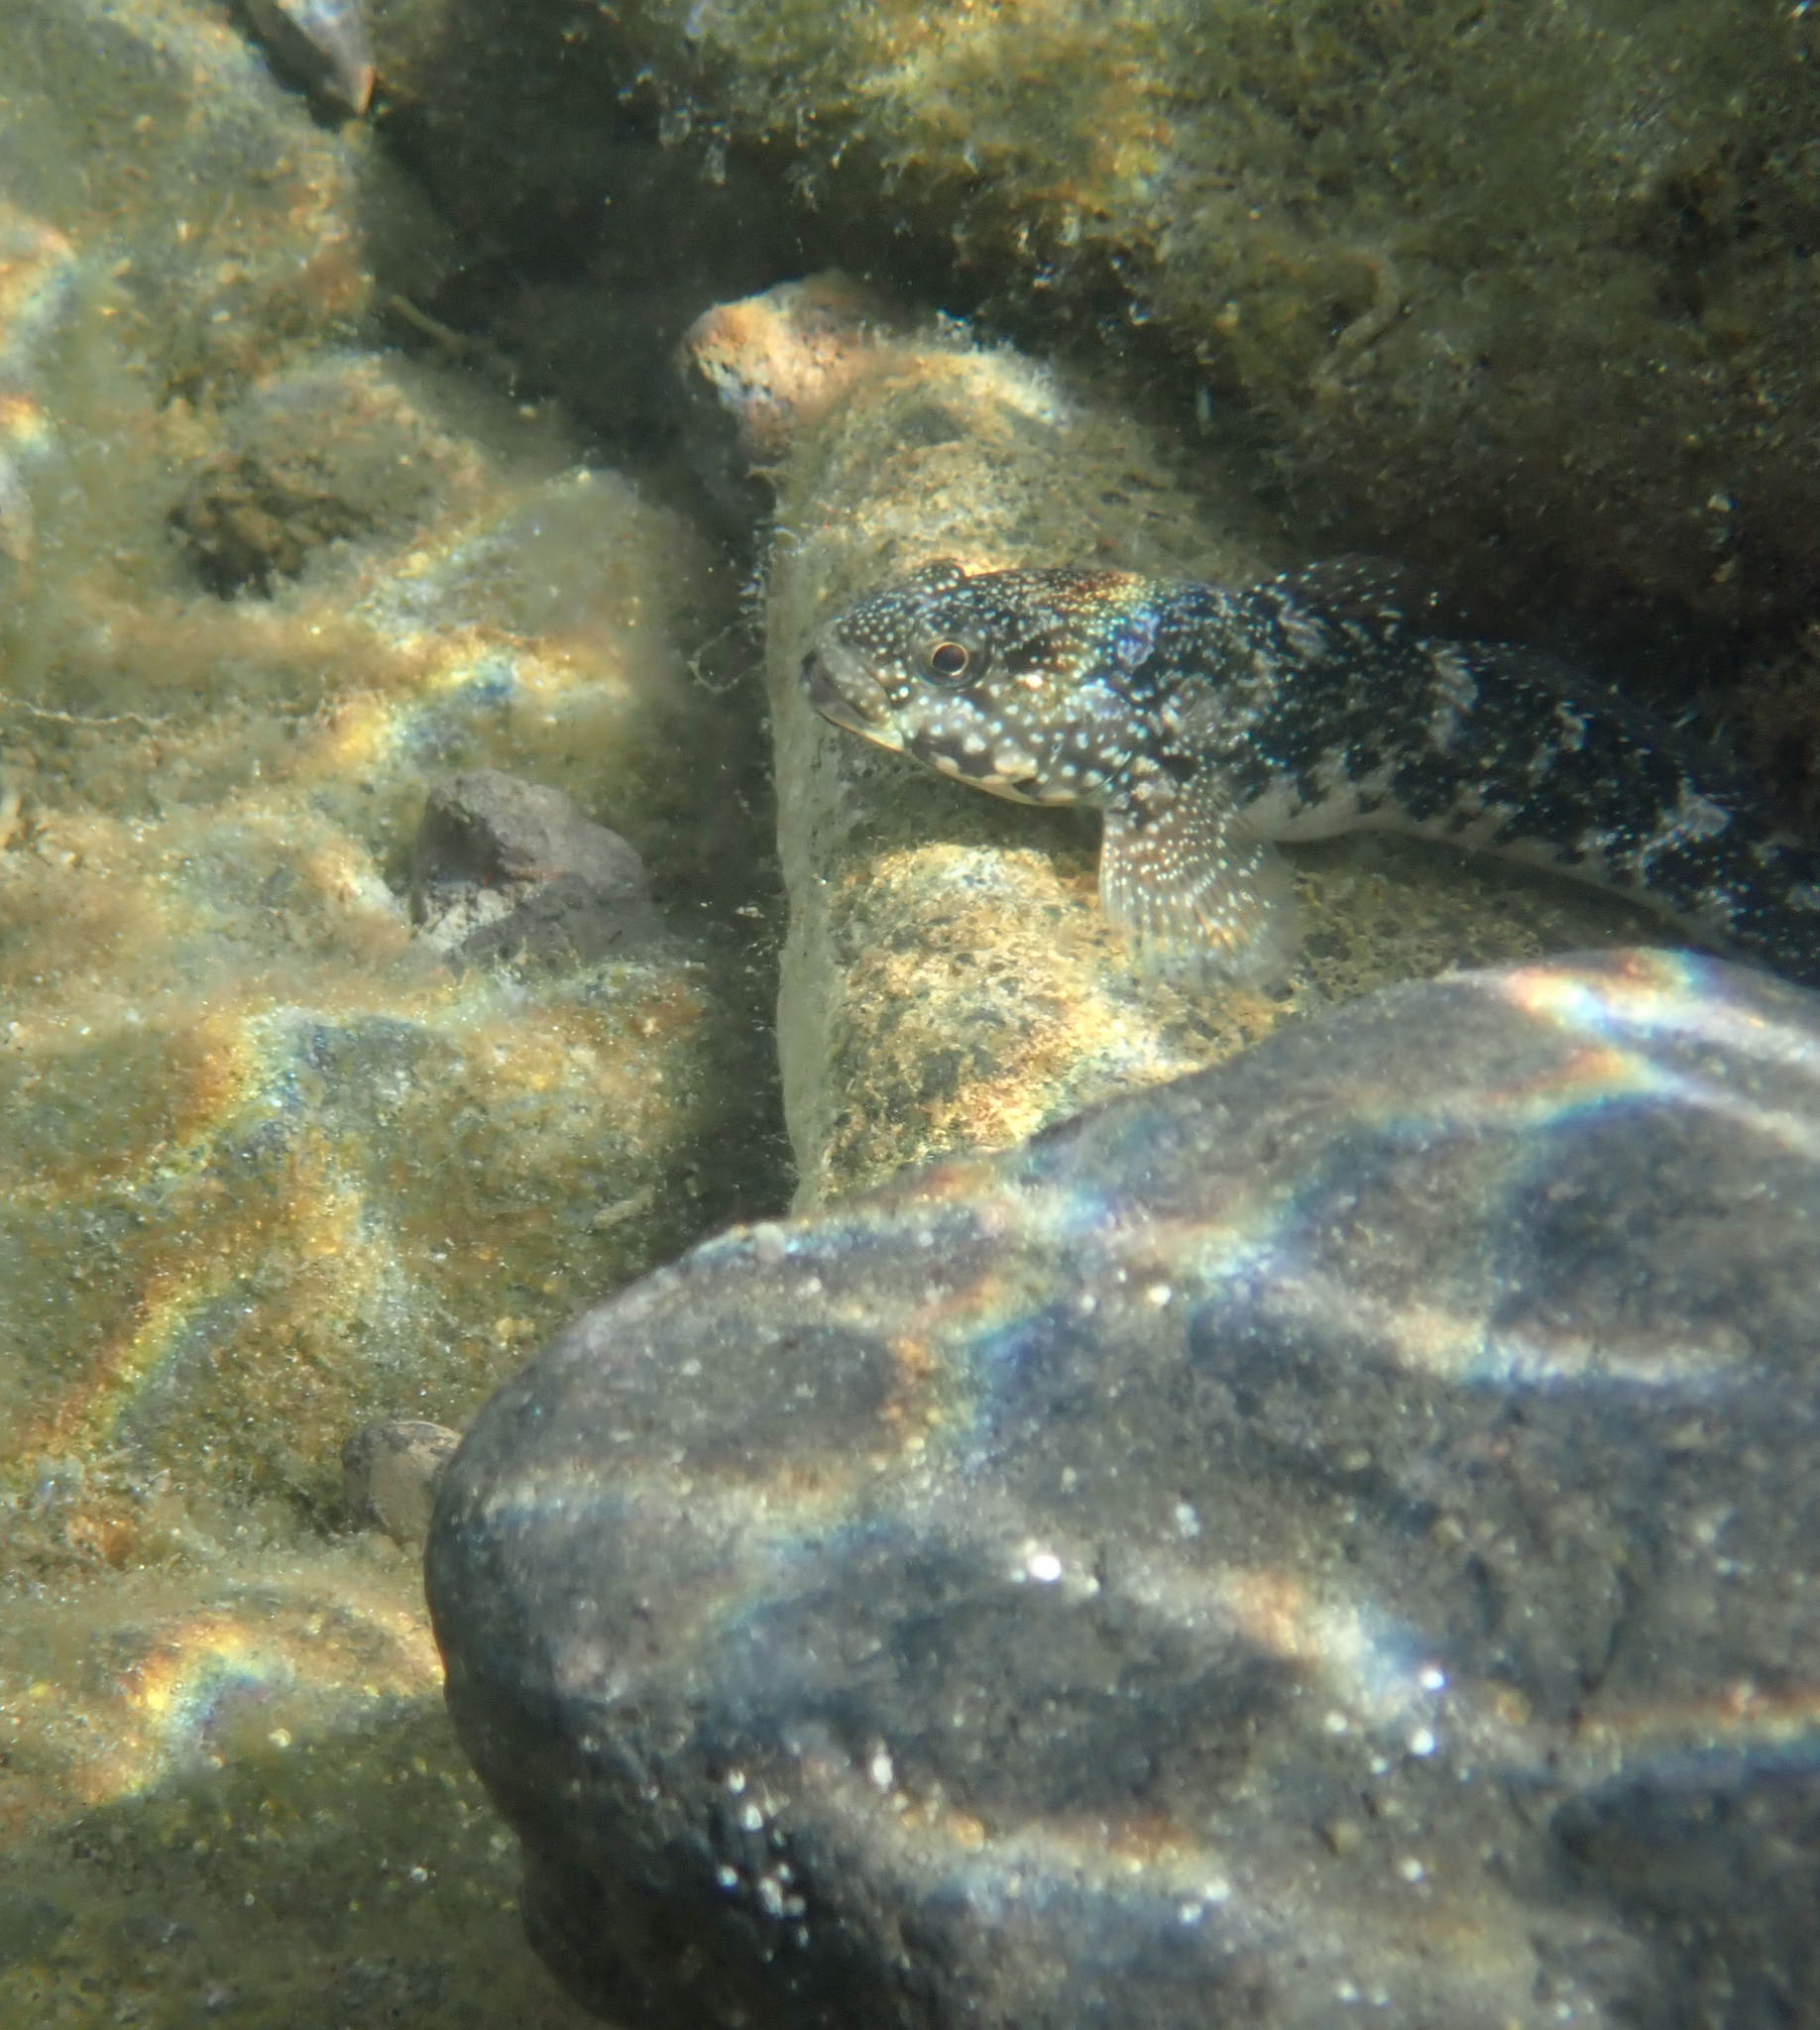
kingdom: Animalia
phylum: Chordata
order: Perciformes
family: Gobiidae
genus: Mauligobius
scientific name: Mauligobius maderensis
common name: Rock goby
